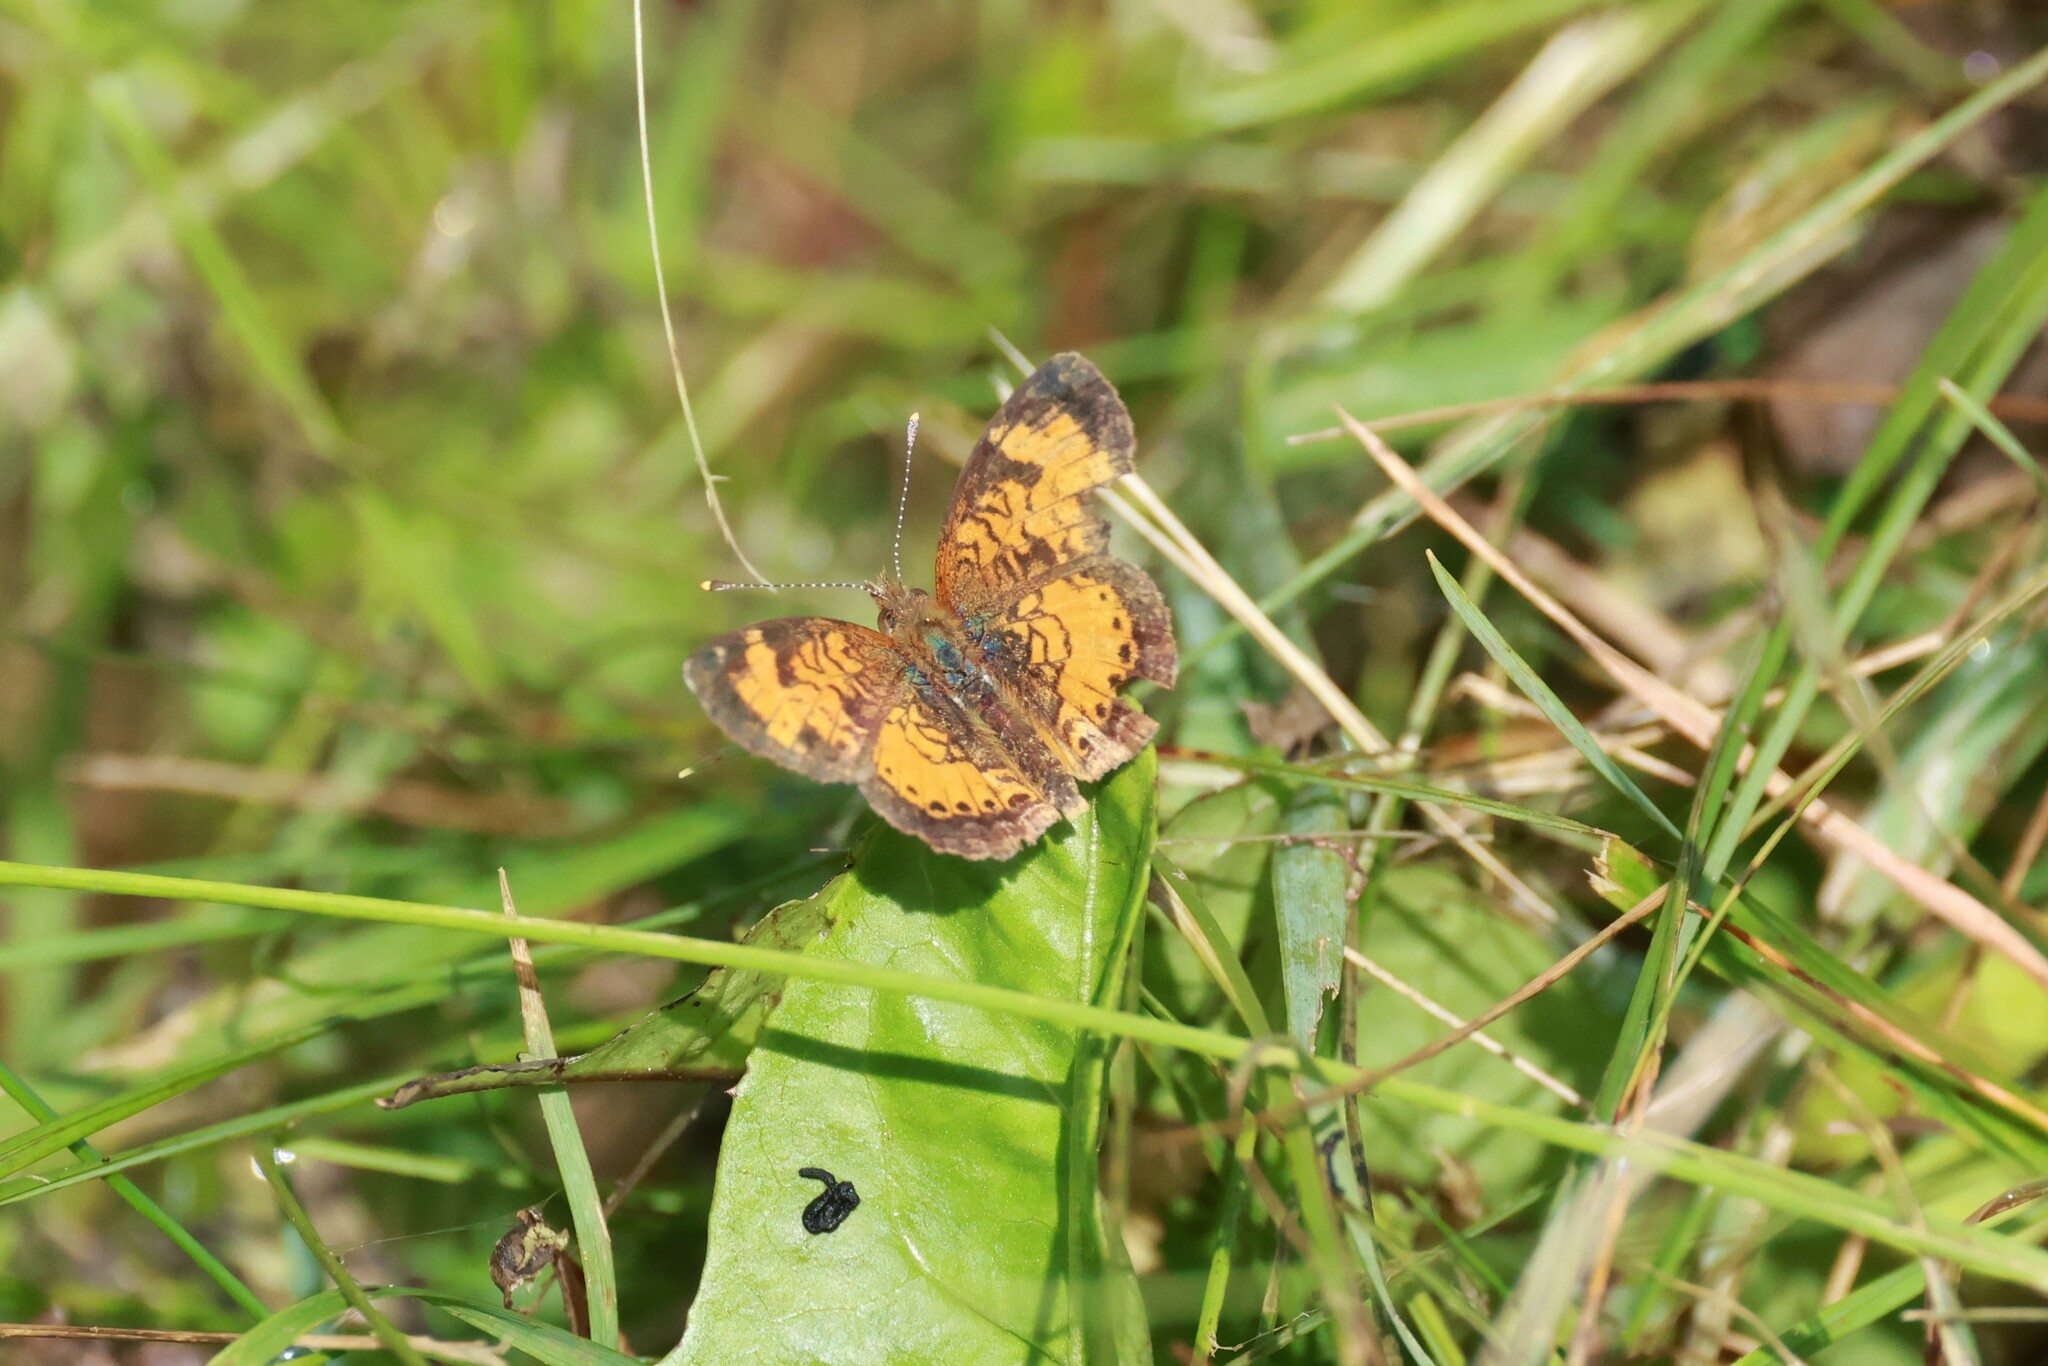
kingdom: Animalia
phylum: Arthropoda
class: Insecta
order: Lepidoptera
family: Nymphalidae
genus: Phyciodes
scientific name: Phyciodes tharos
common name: Pearl crescent
